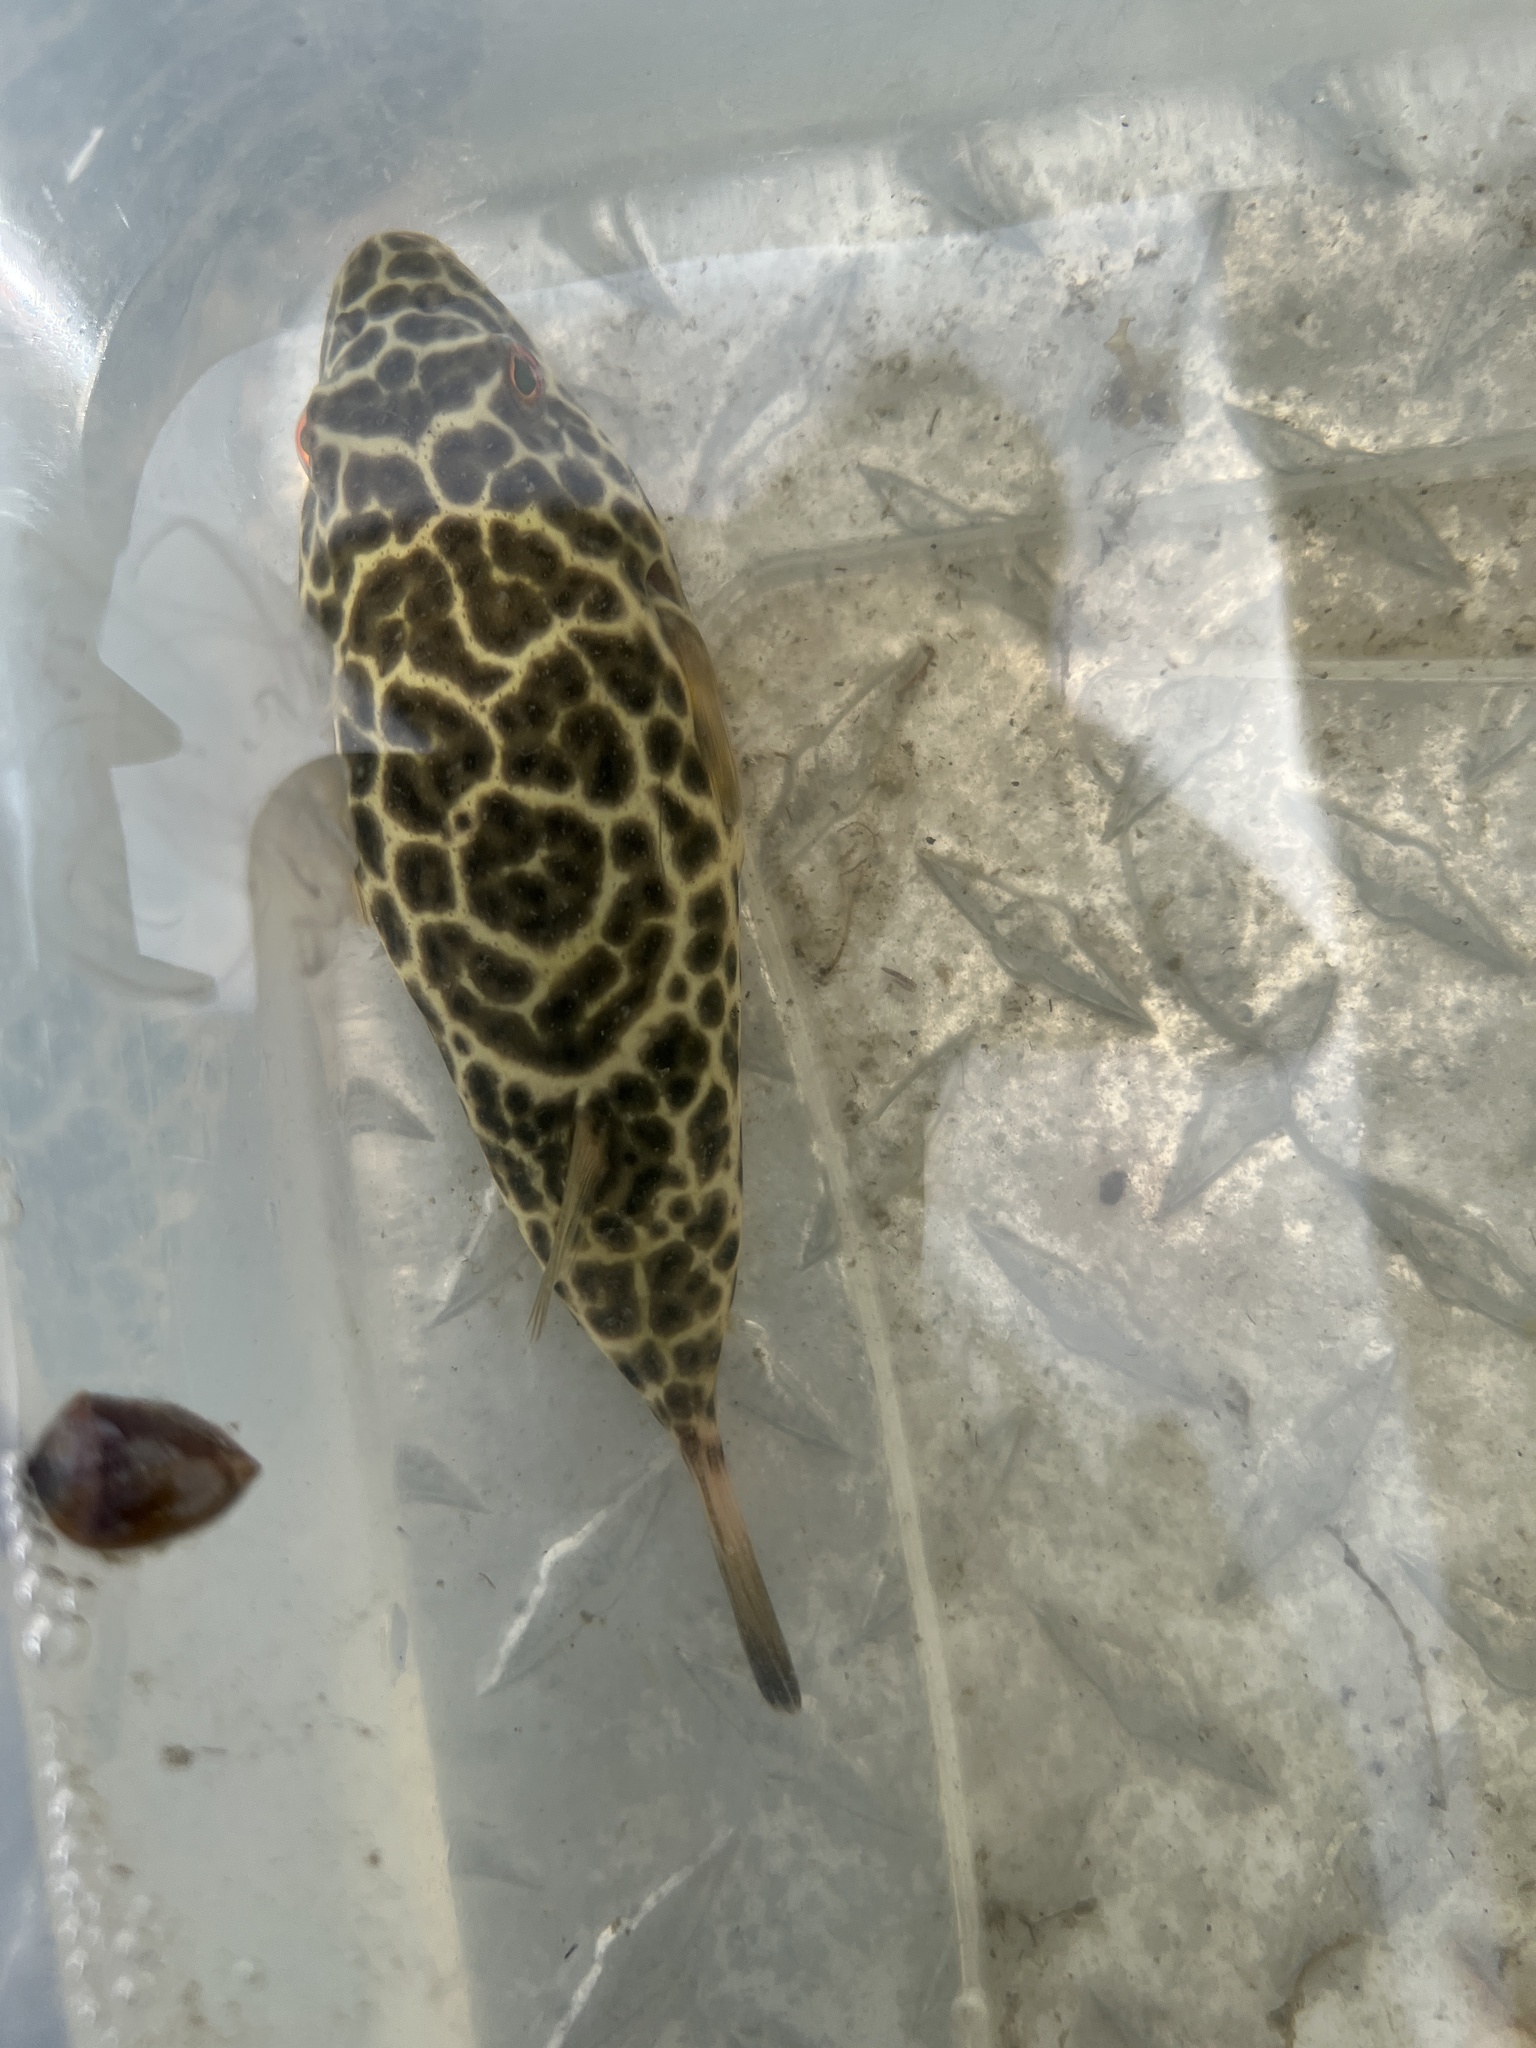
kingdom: Animalia
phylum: Chordata
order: Tetraodontiformes
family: Tetraodontidae
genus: Sphoeroides
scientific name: Sphoeroides testudineus
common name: Checkered puffer
